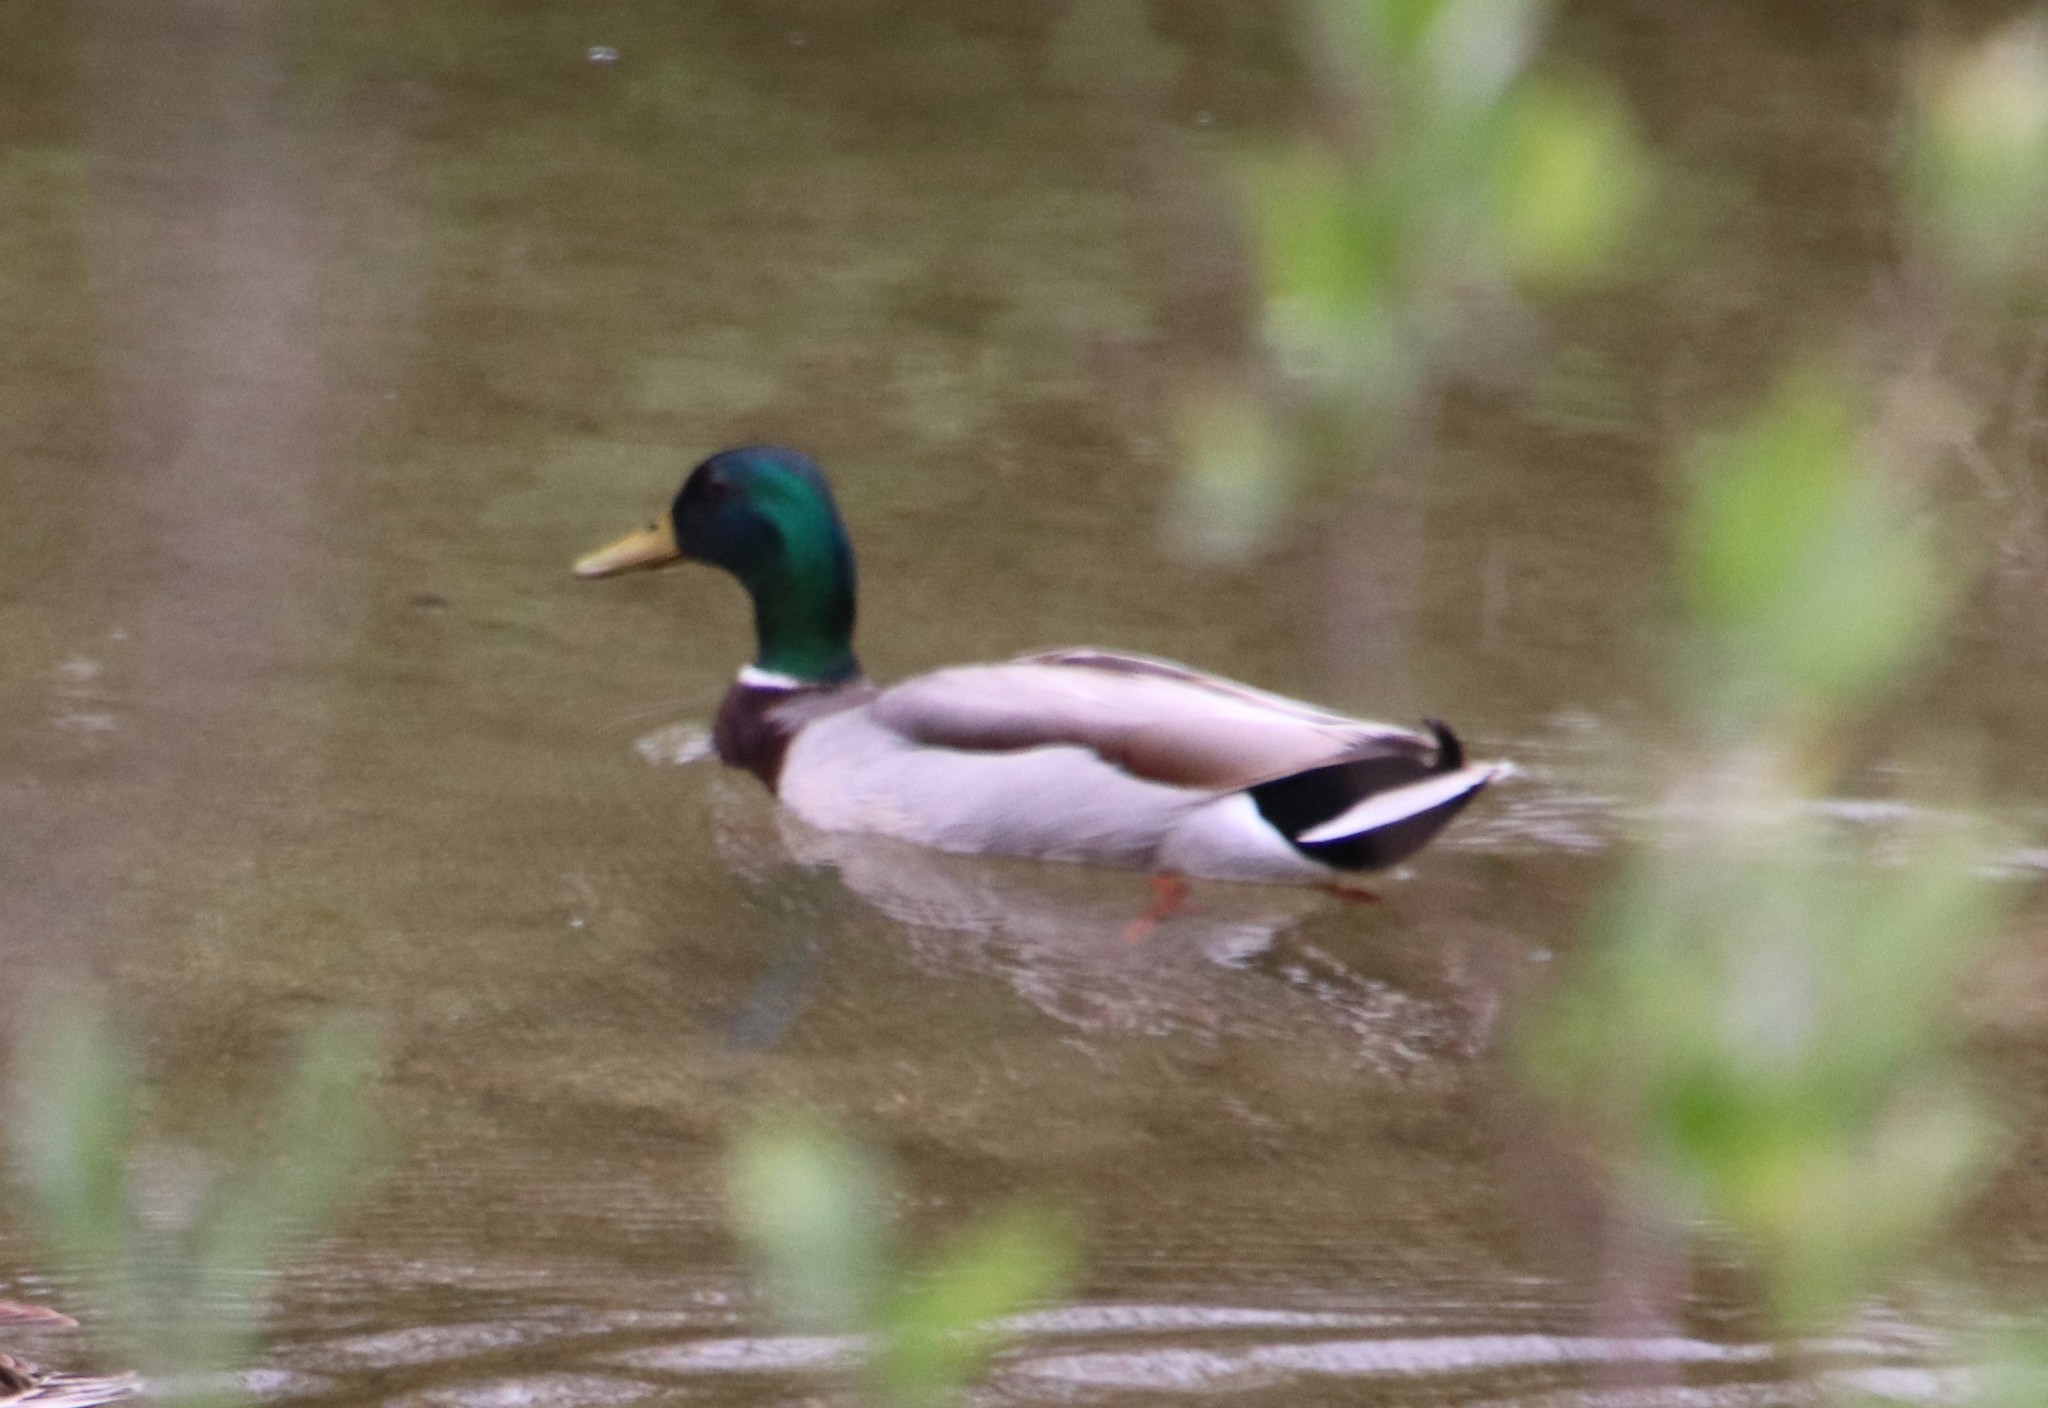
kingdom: Animalia
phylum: Chordata
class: Aves
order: Anseriformes
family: Anatidae
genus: Anas
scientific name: Anas platyrhynchos
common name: Mallard
